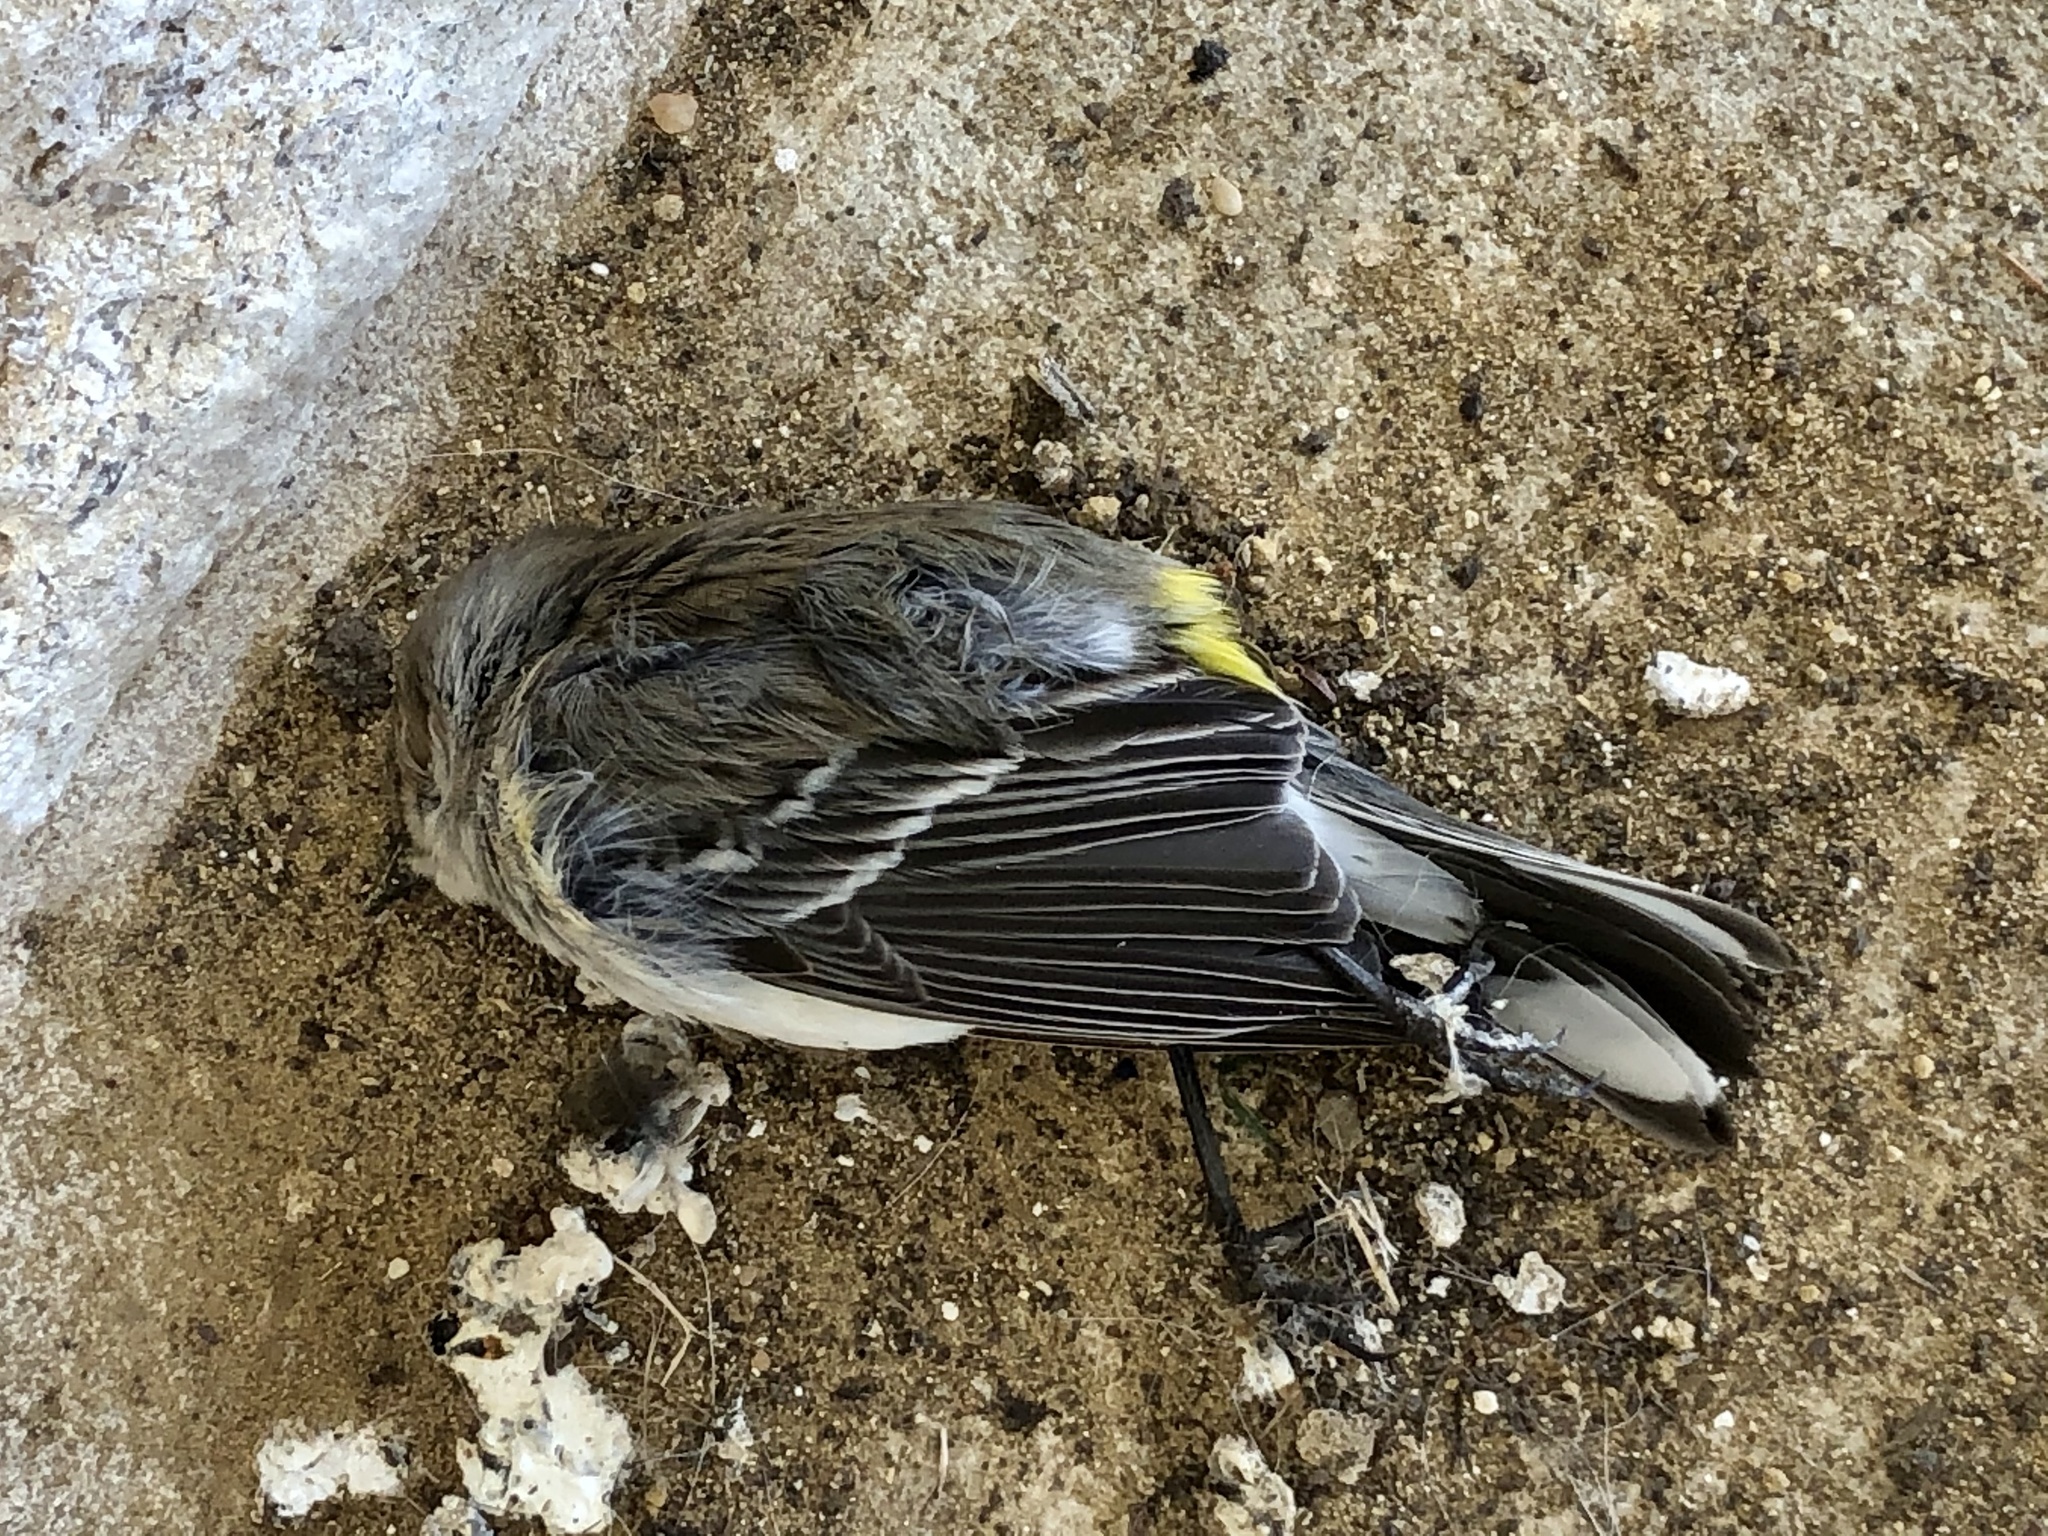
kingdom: Animalia
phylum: Chordata
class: Aves
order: Passeriformes
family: Parulidae
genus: Setophaga
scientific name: Setophaga coronata
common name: Myrtle warbler
